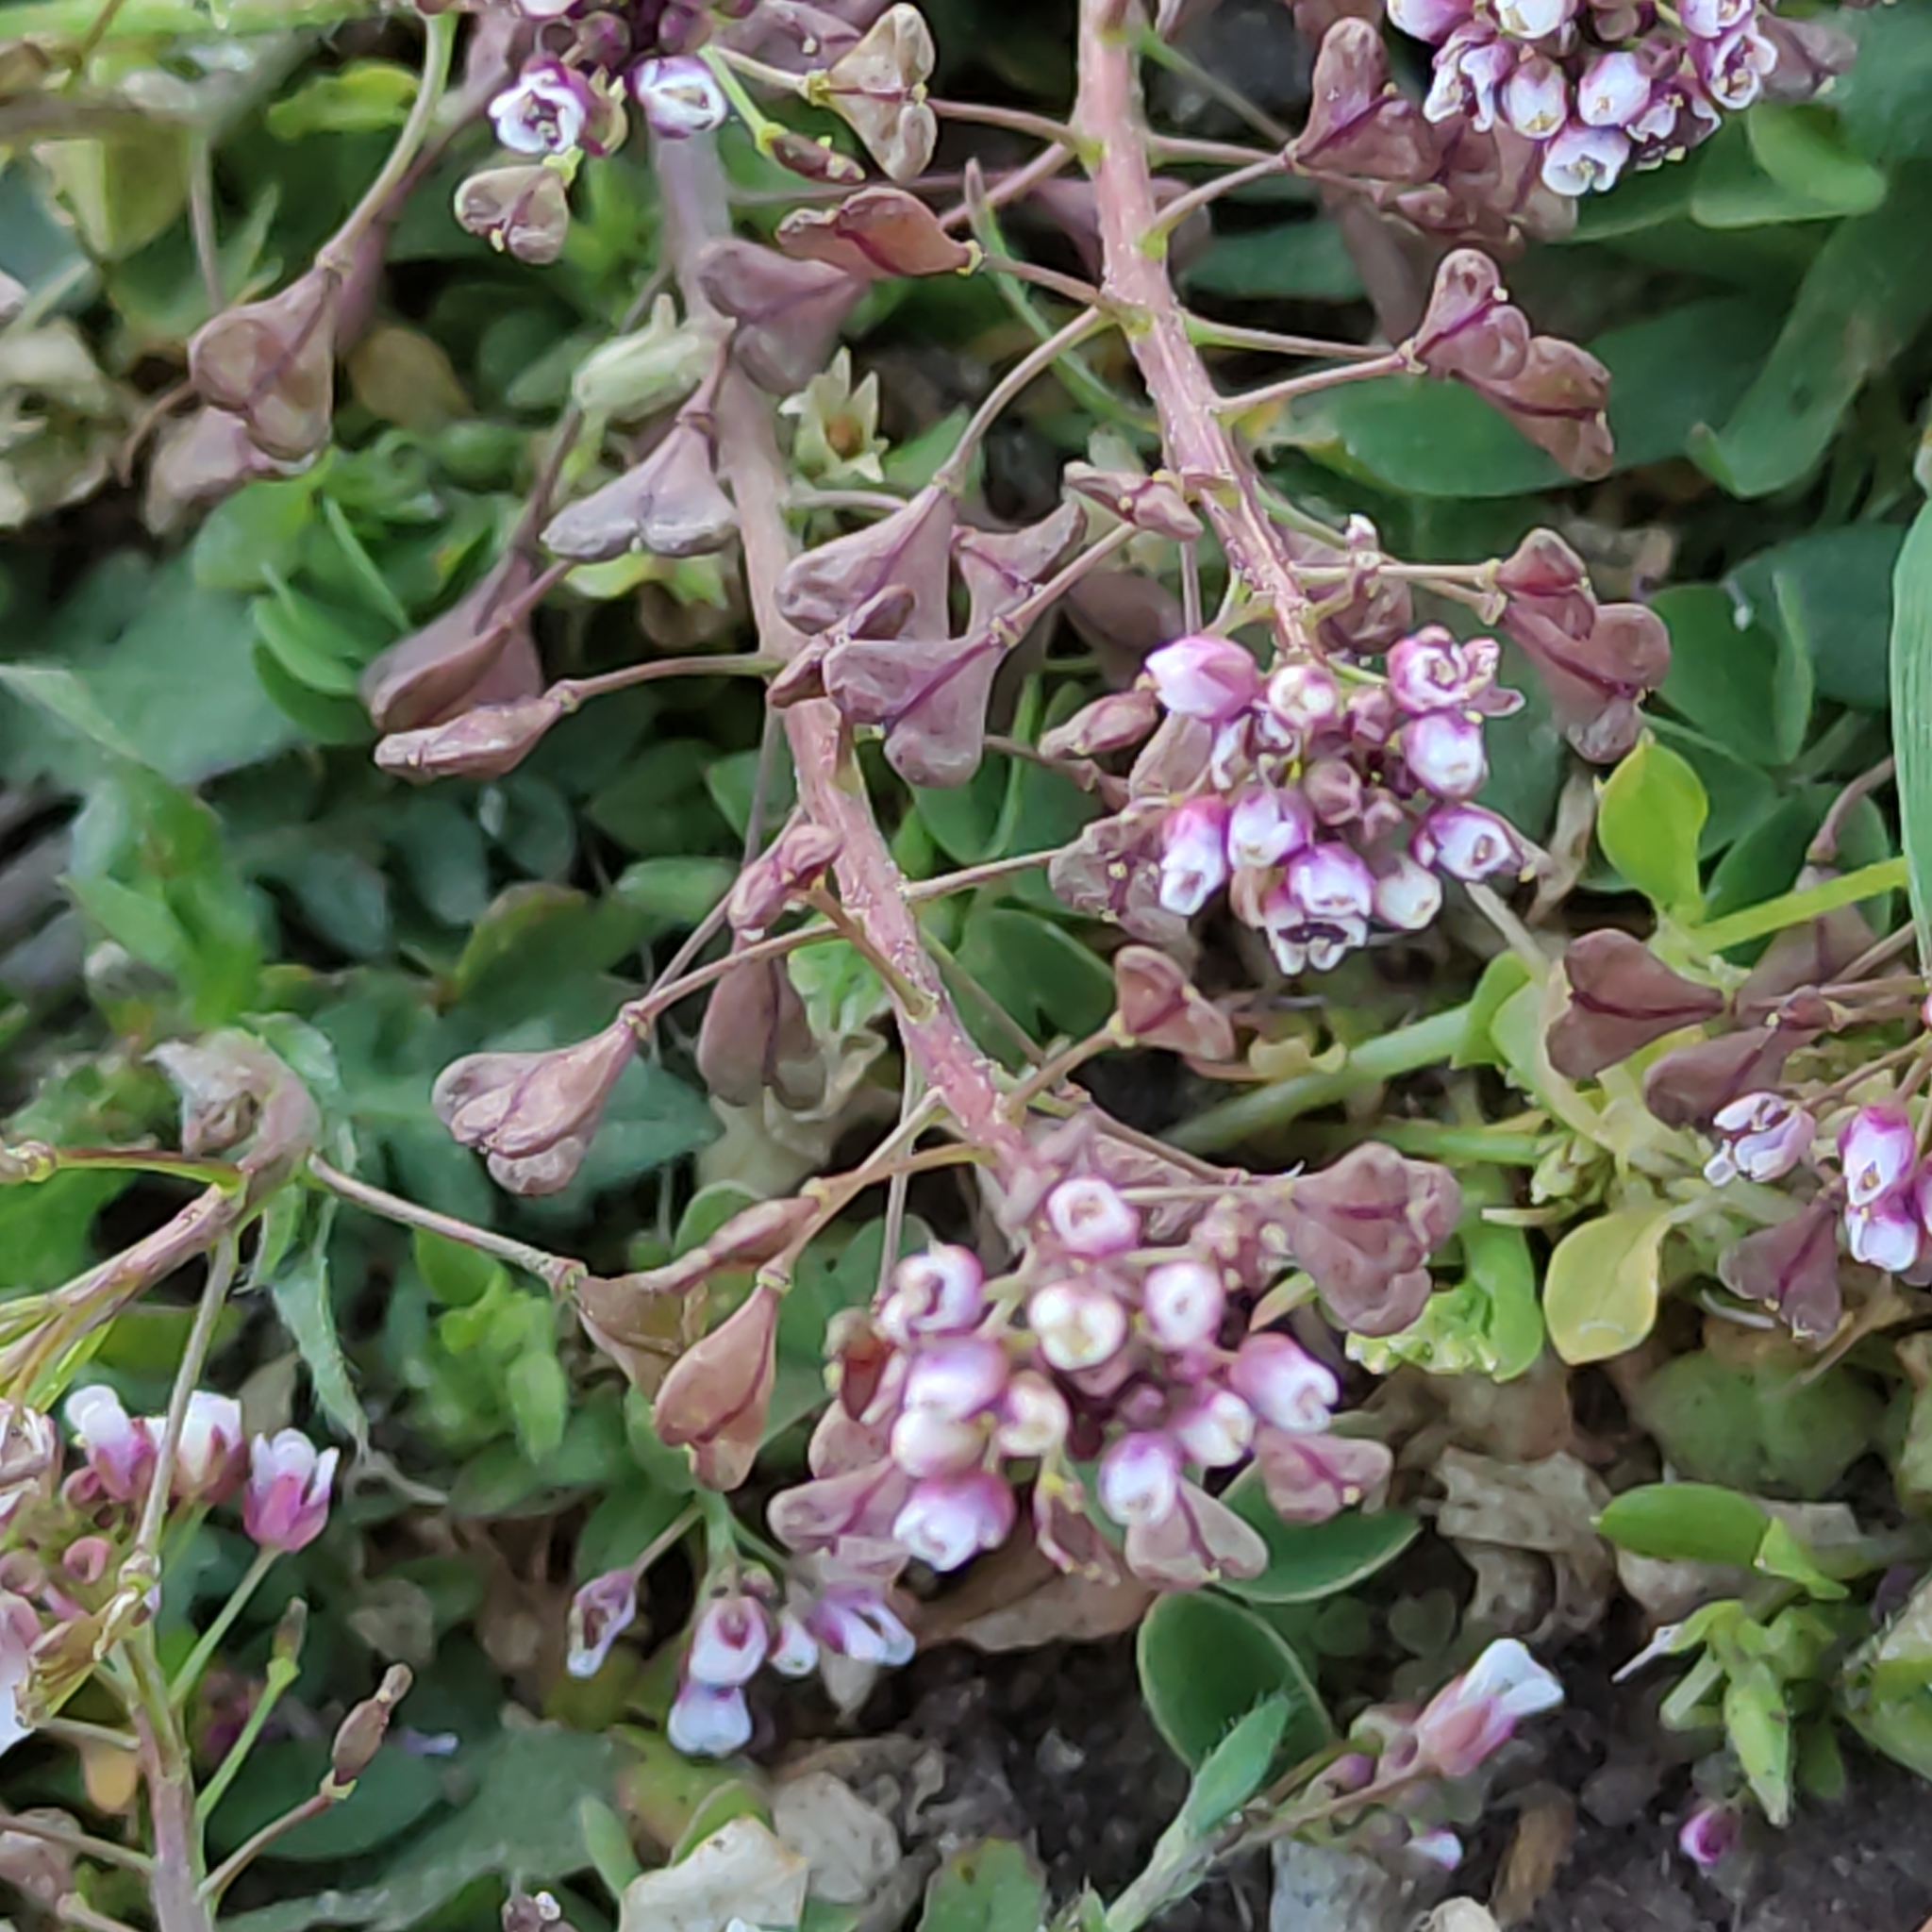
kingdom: Plantae
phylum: Tracheophyta
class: Magnoliopsida
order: Brassicales
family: Brassicaceae
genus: Capsella
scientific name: Capsella bursa-pastoris
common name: Shepherd's purse
